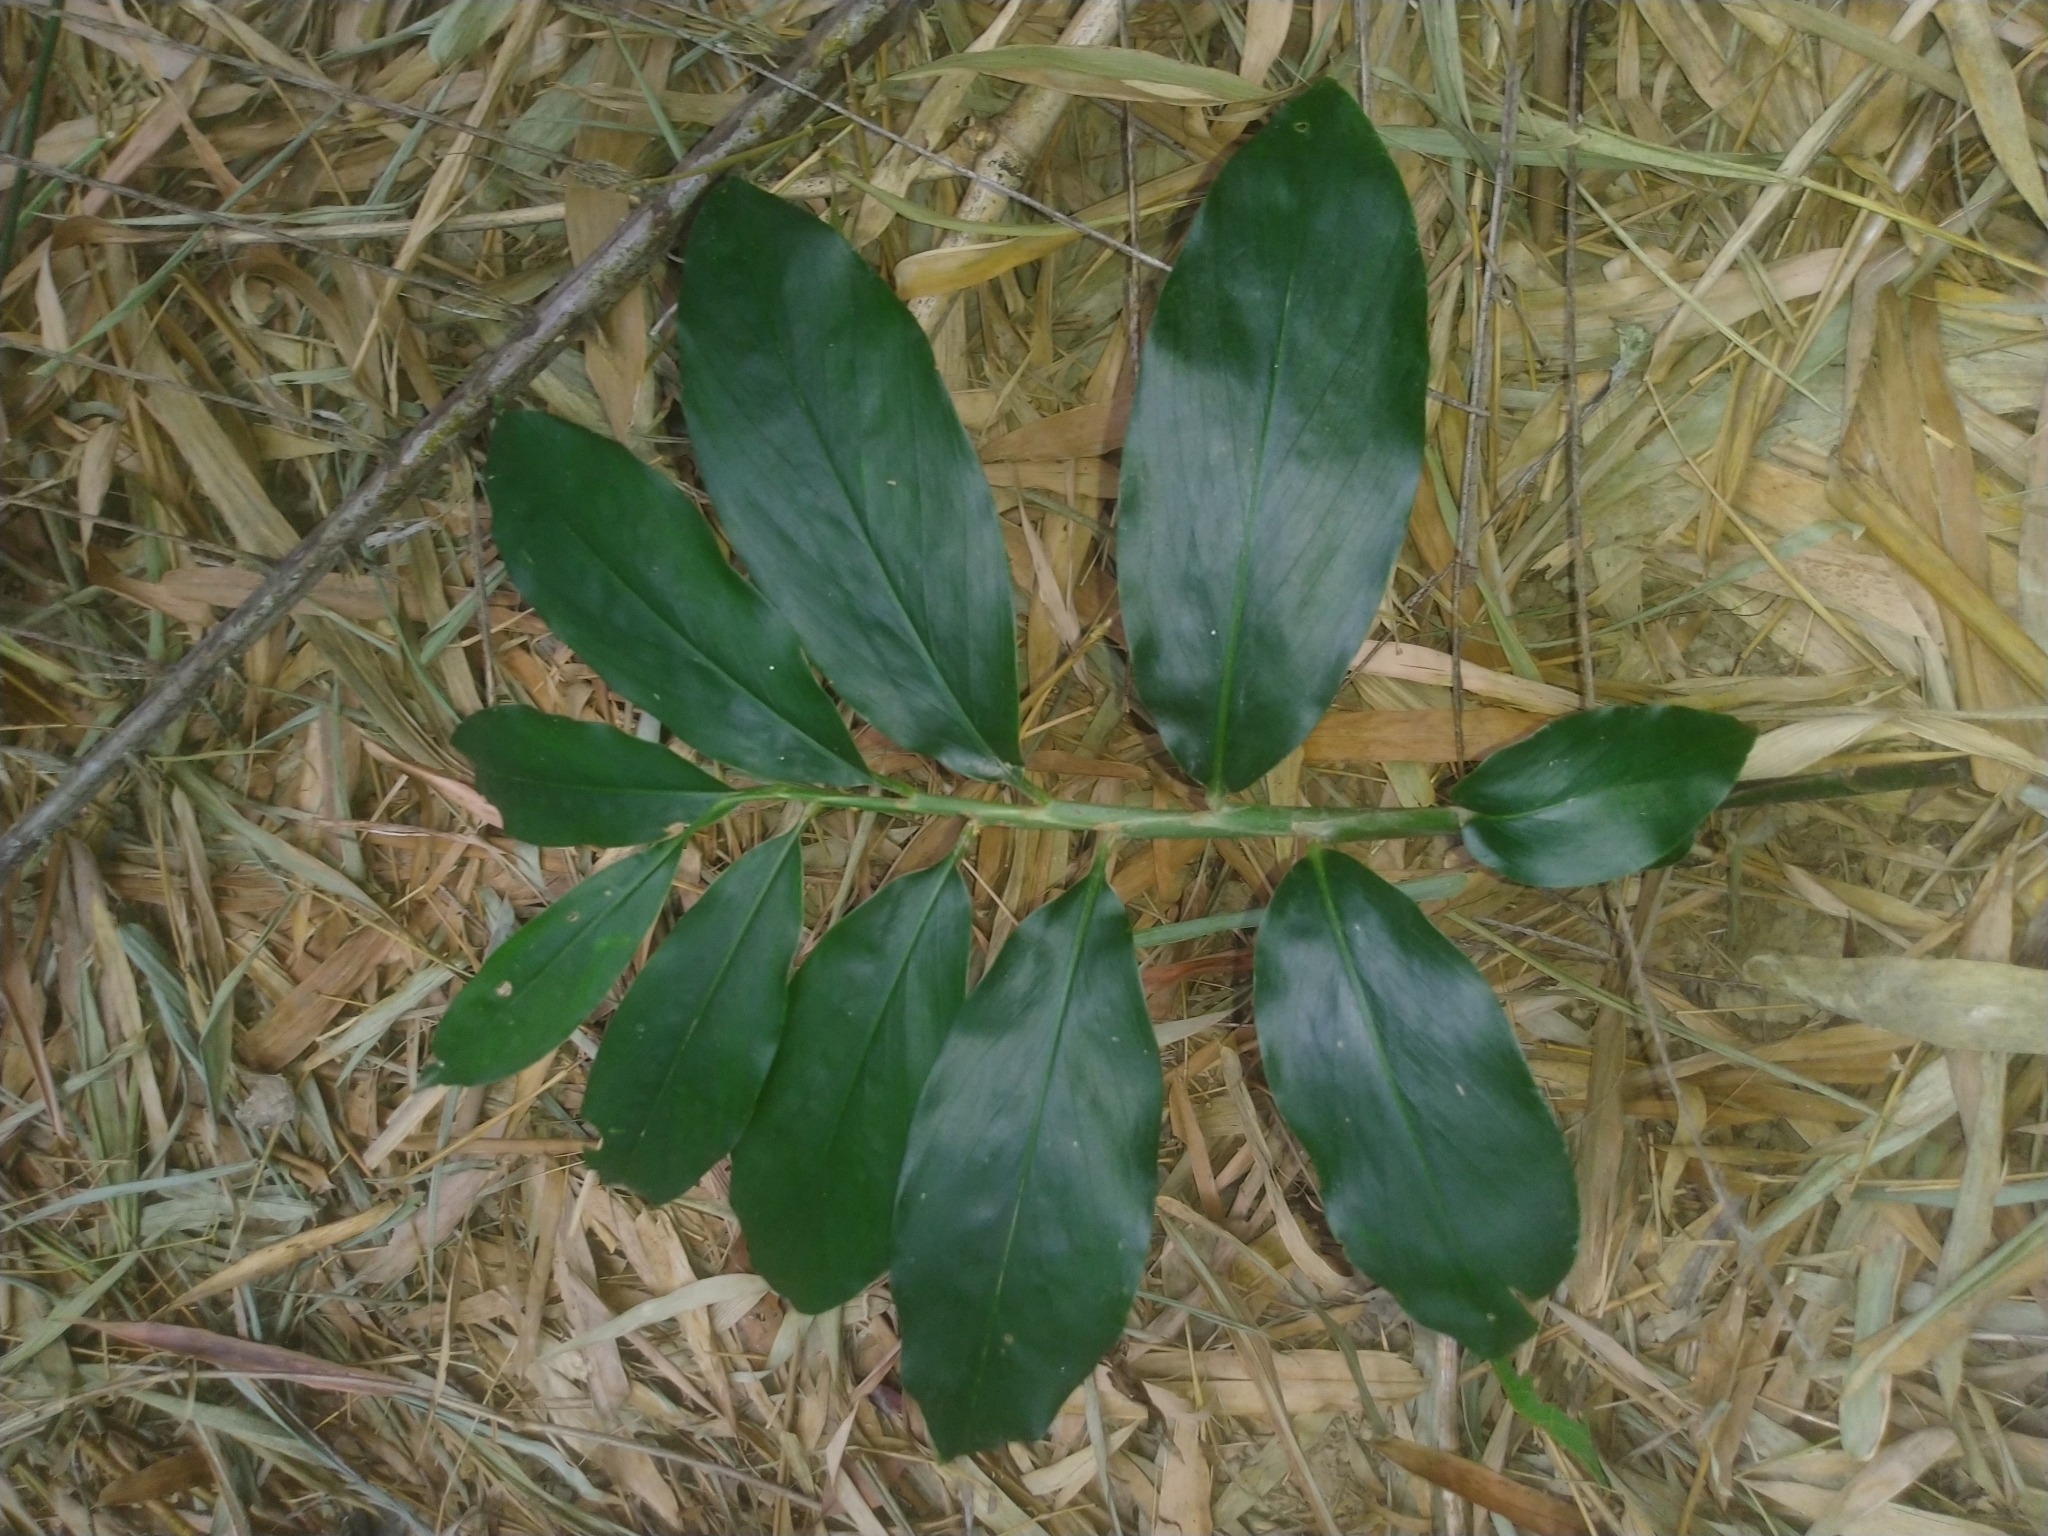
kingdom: Plantae
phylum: Tracheophyta
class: Liliopsida
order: Zingiberales
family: Zingiberaceae
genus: Zingiber
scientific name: Zingiber kawagoii
